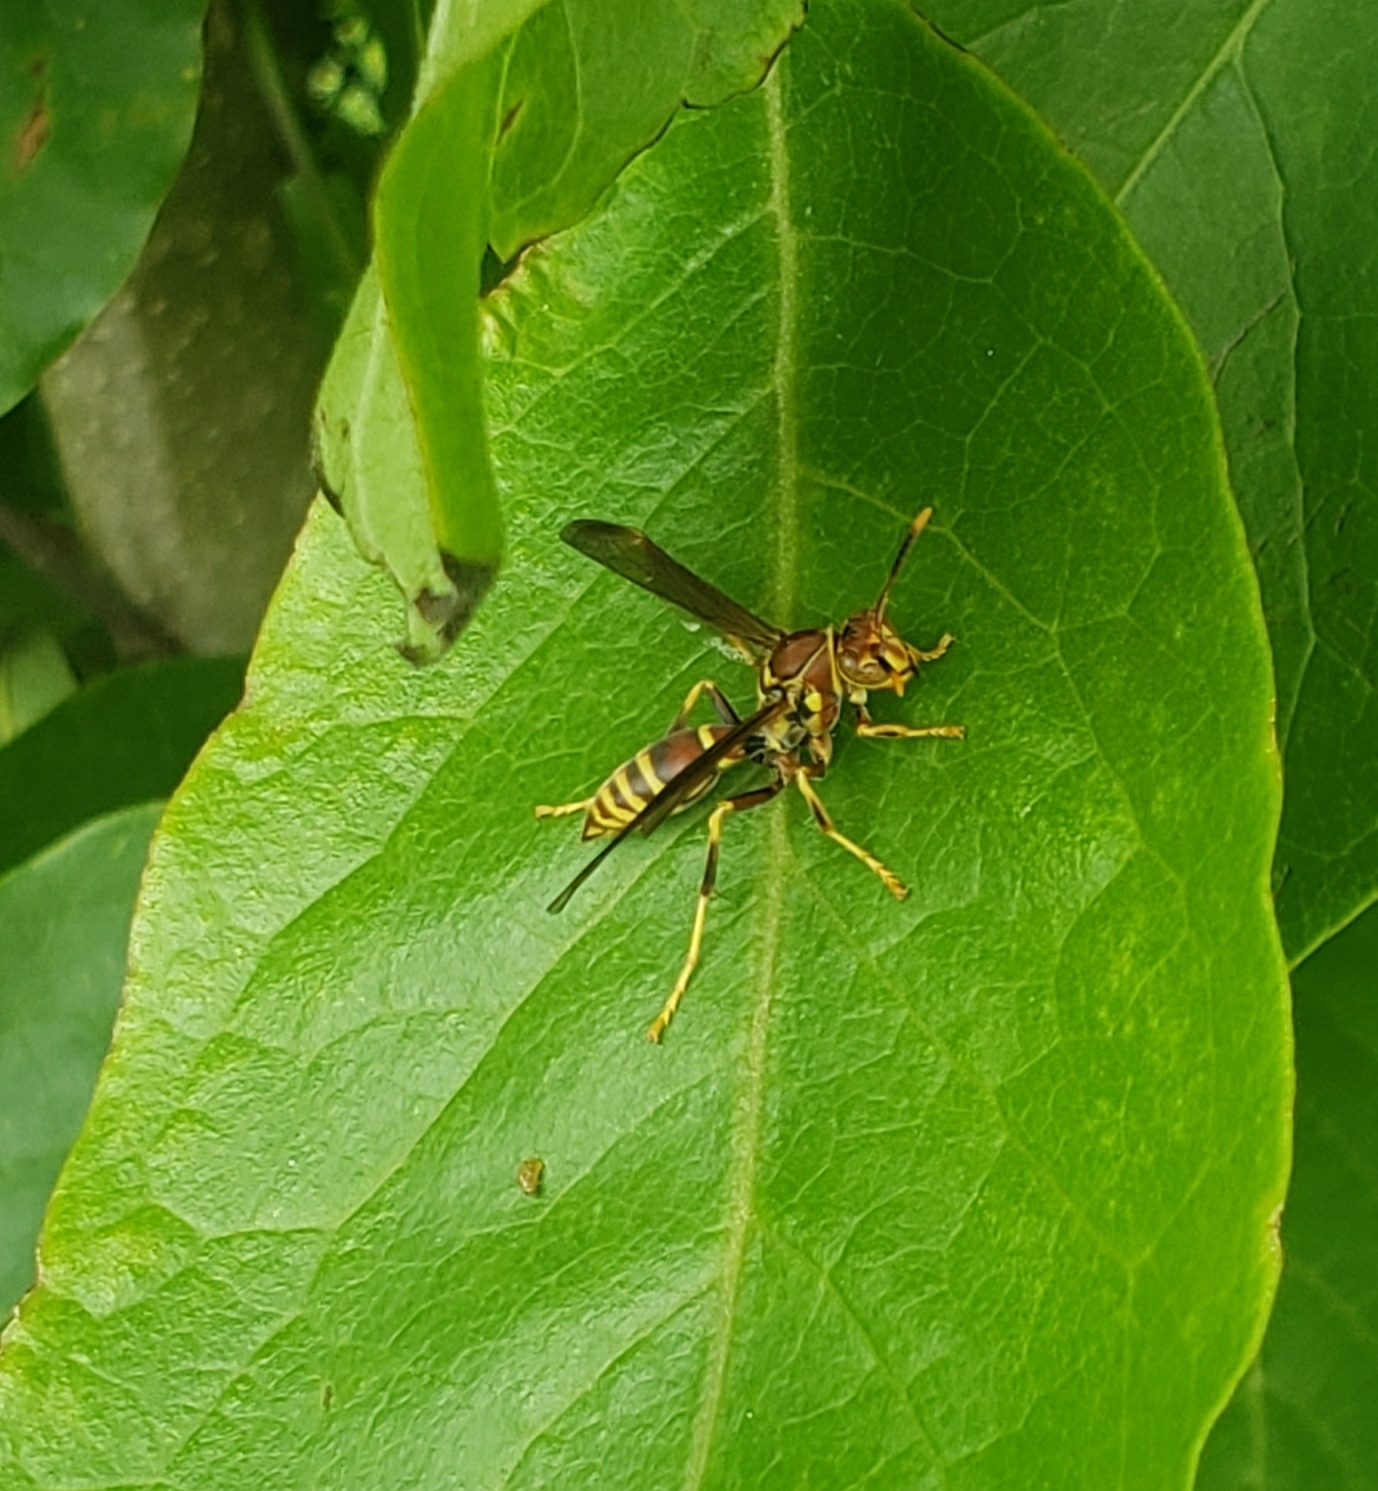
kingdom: Animalia
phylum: Arthropoda
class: Insecta
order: Hymenoptera
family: Eumenidae
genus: Polistes
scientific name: Polistes exclamans
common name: Paper wasp
